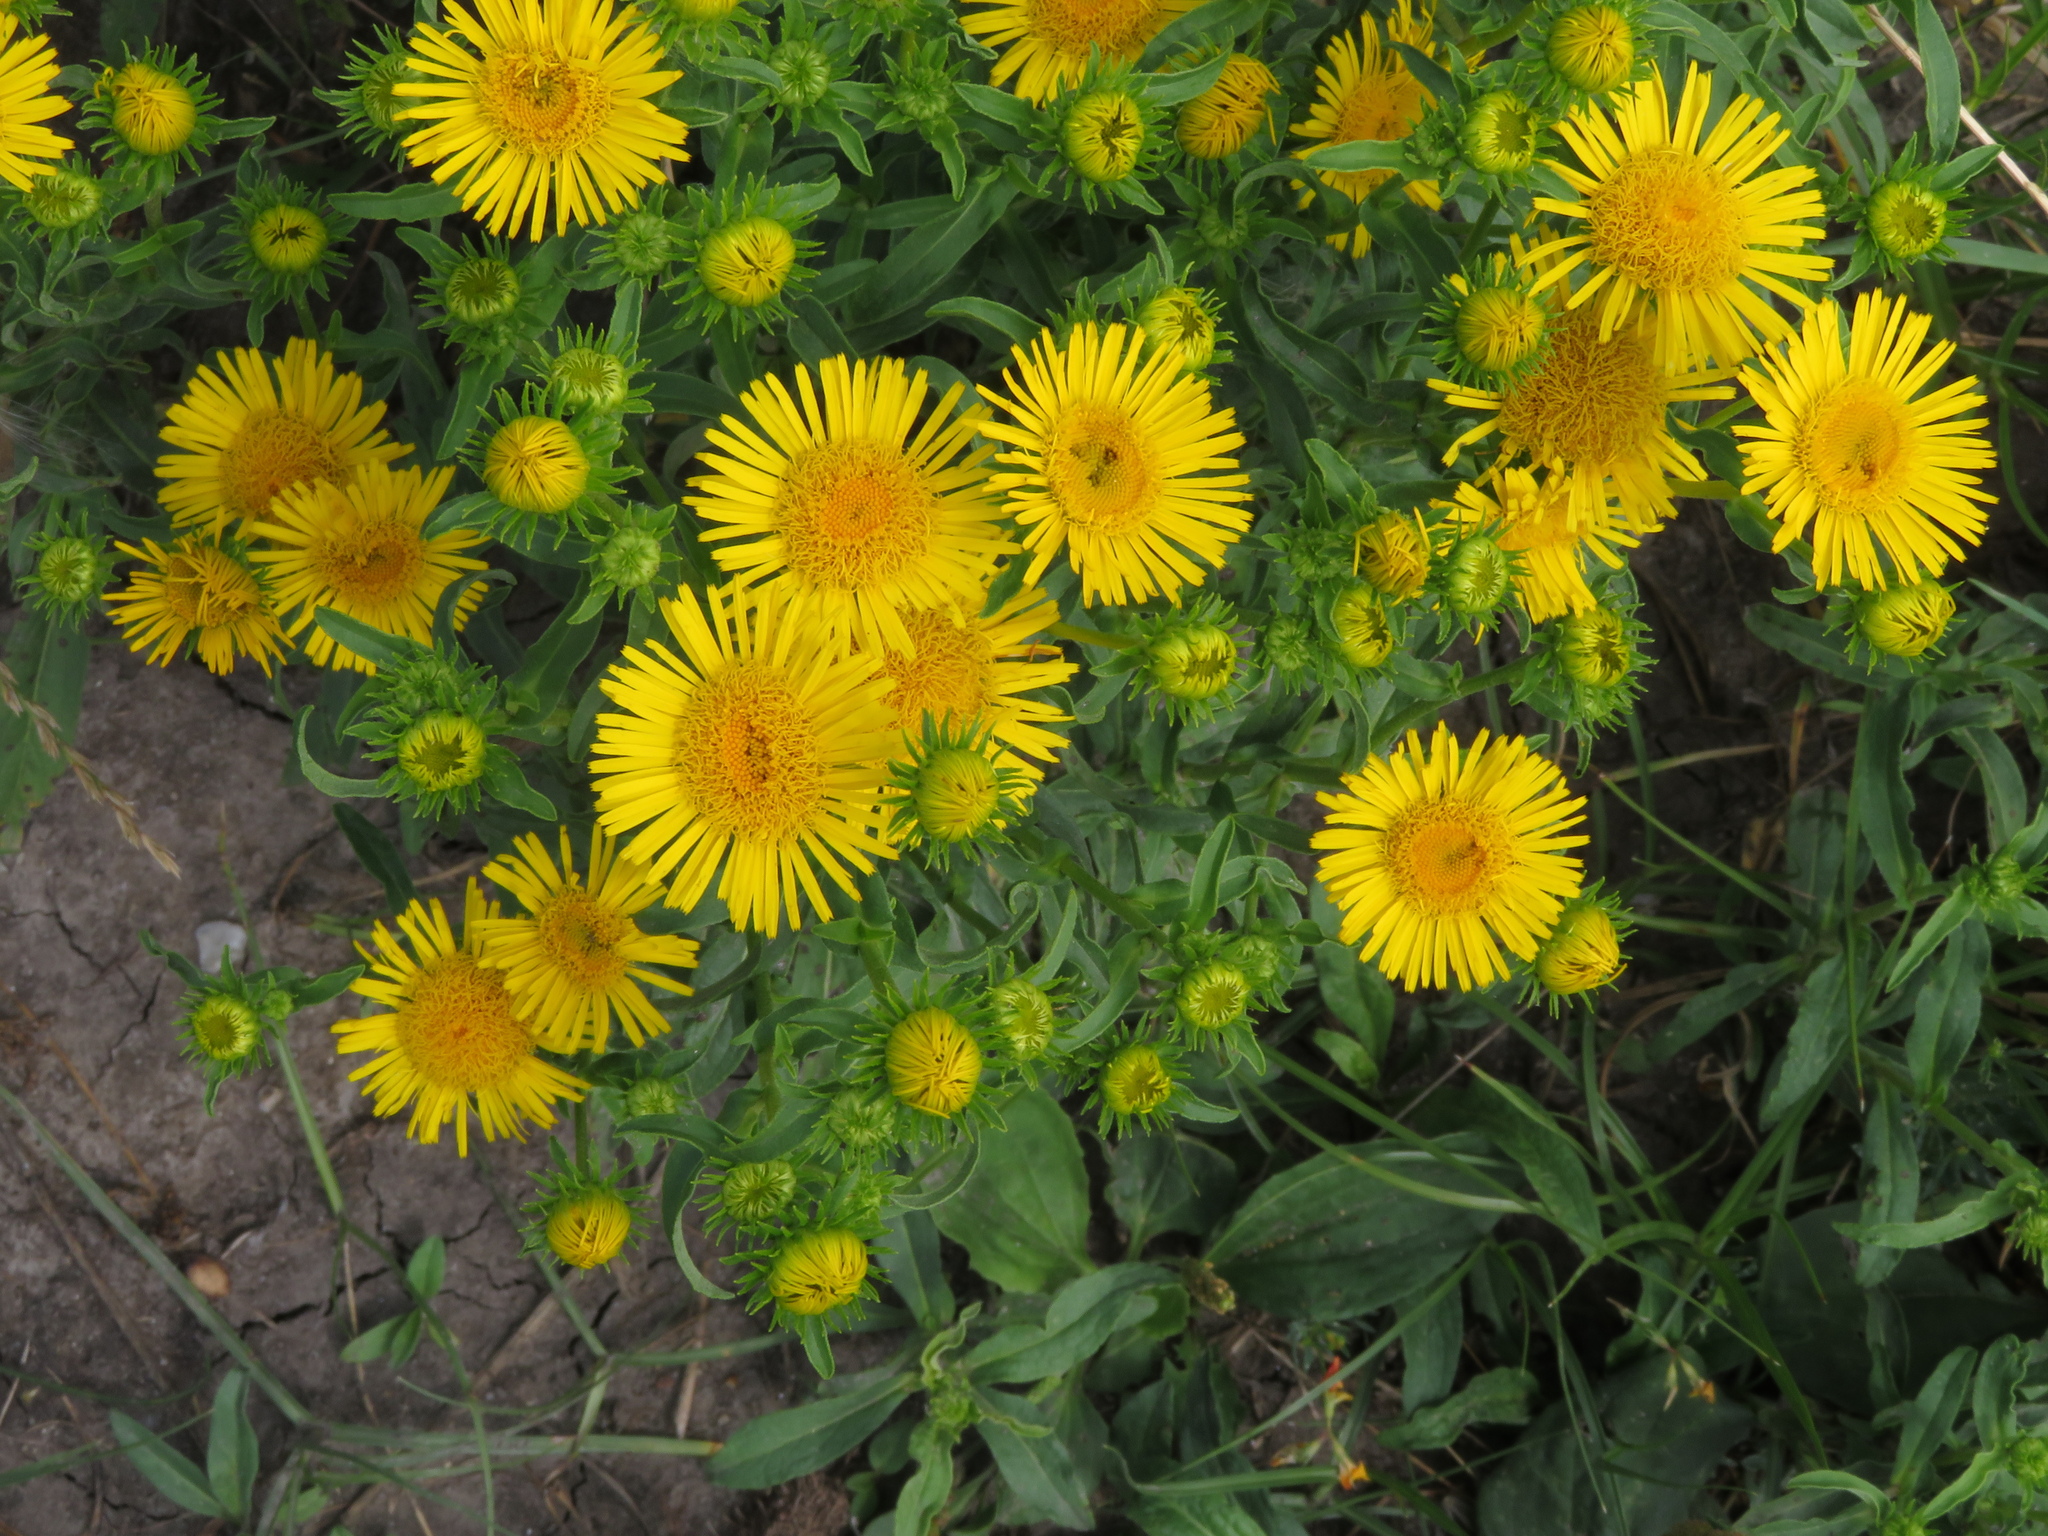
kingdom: Plantae
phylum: Tracheophyta
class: Magnoliopsida
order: Asterales
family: Asteraceae
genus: Pentanema
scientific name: Pentanema britannicum
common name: British elecampane
